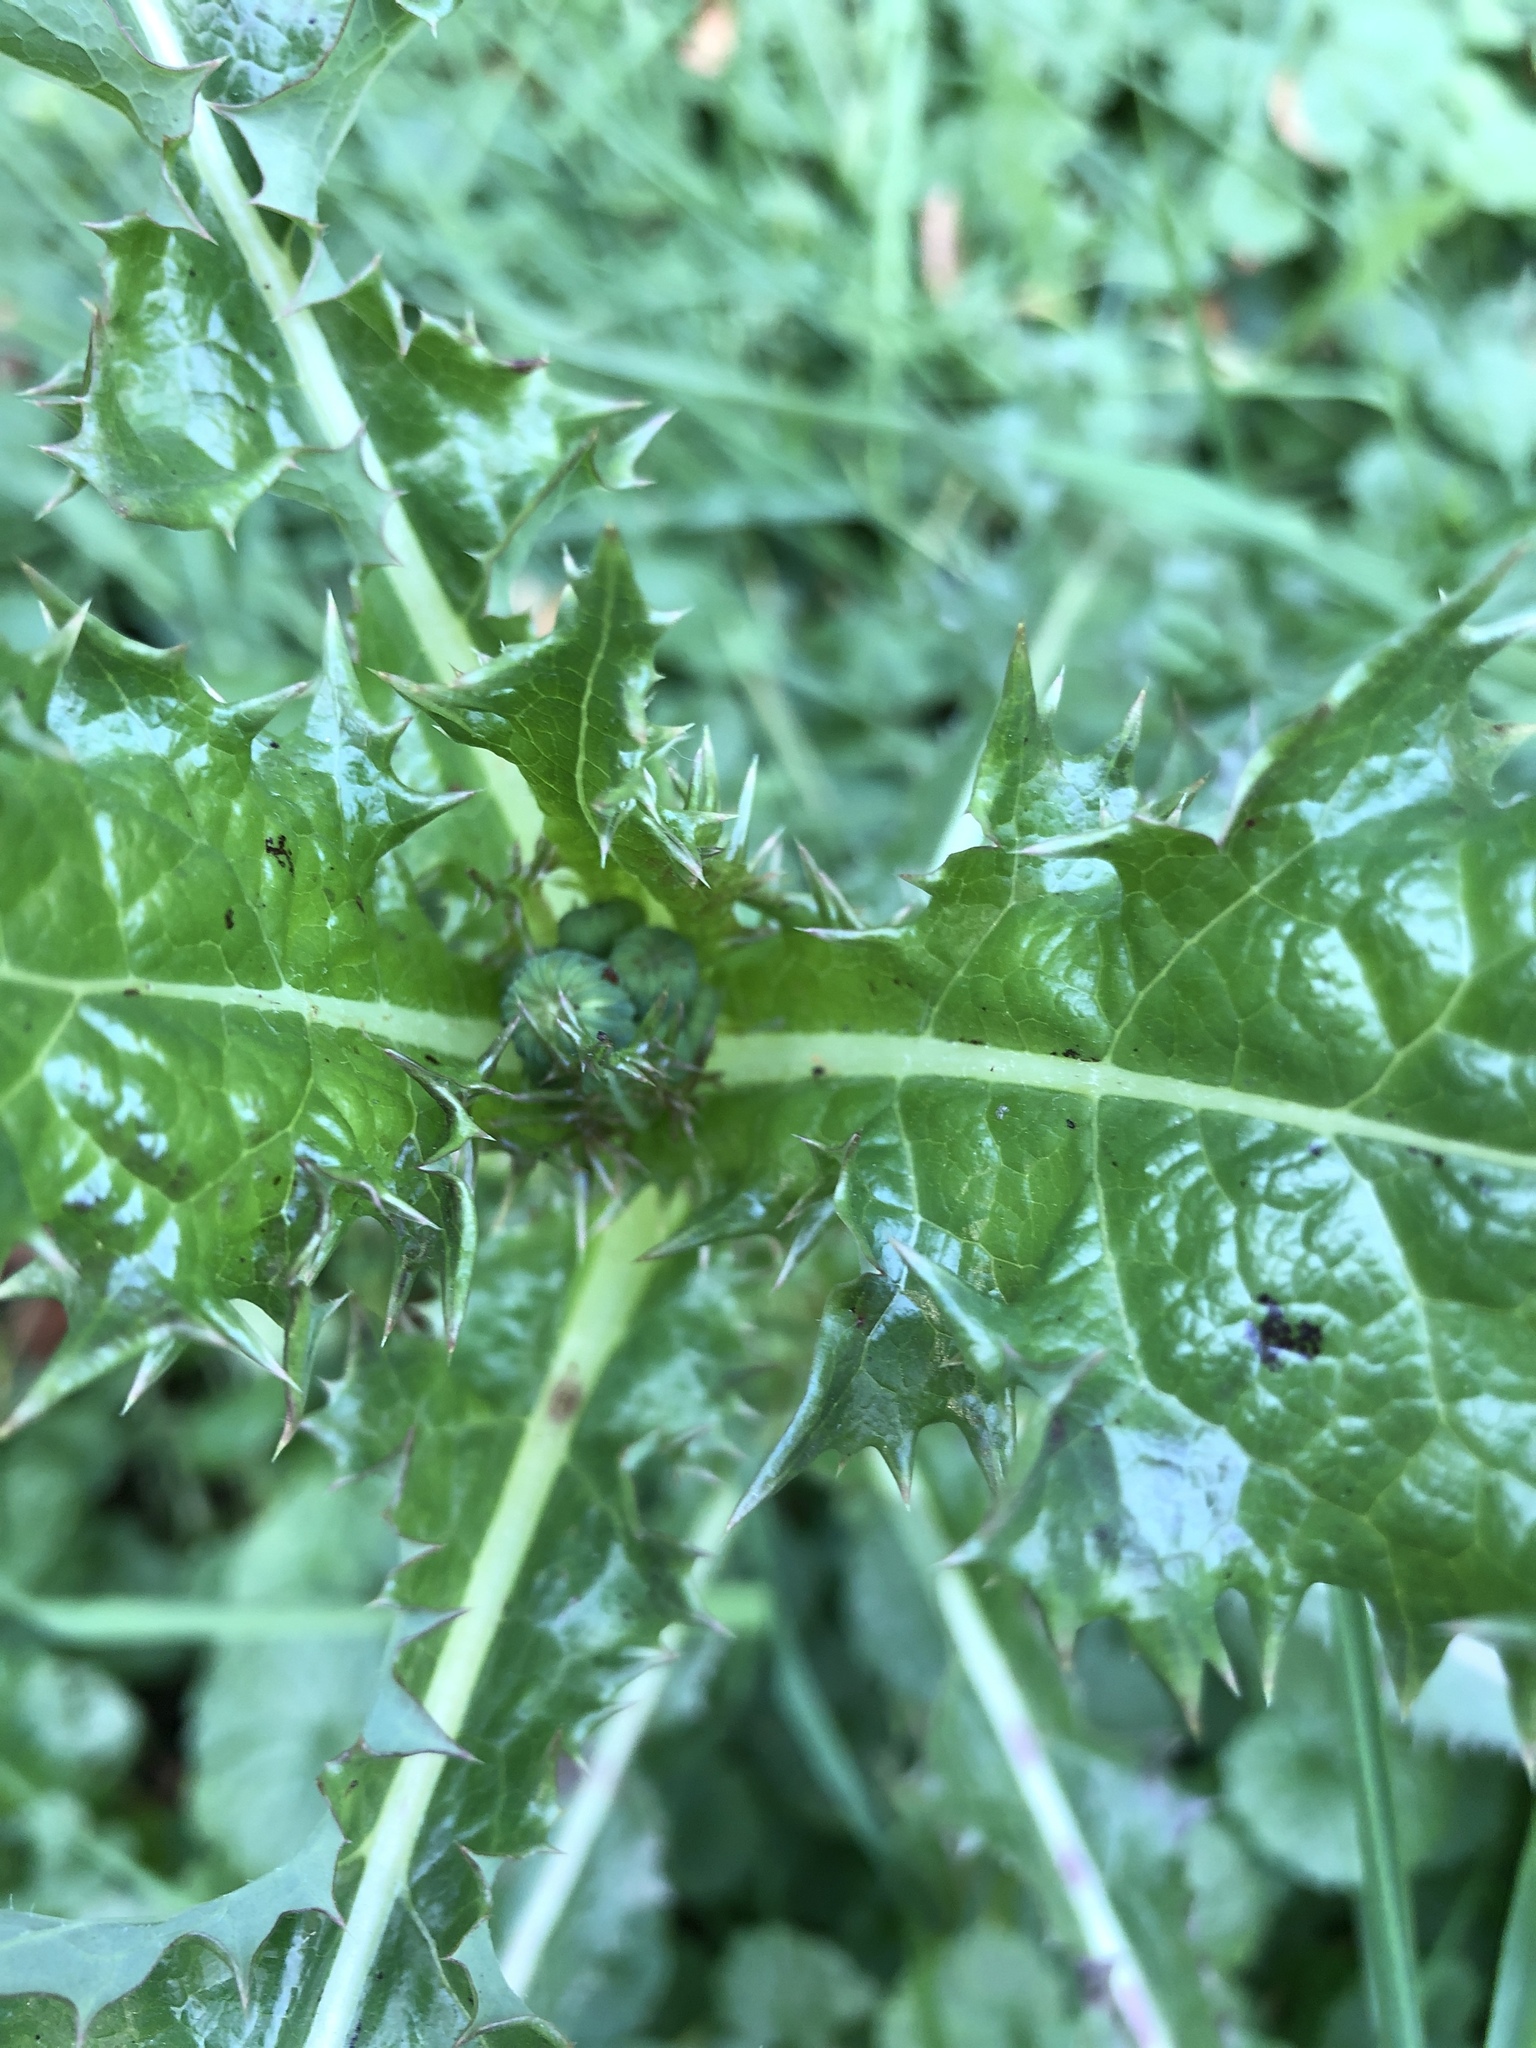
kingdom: Plantae
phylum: Tracheophyta
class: Magnoliopsida
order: Asterales
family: Asteraceae
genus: Sonchus
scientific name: Sonchus asper
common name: Prickly sow-thistle
